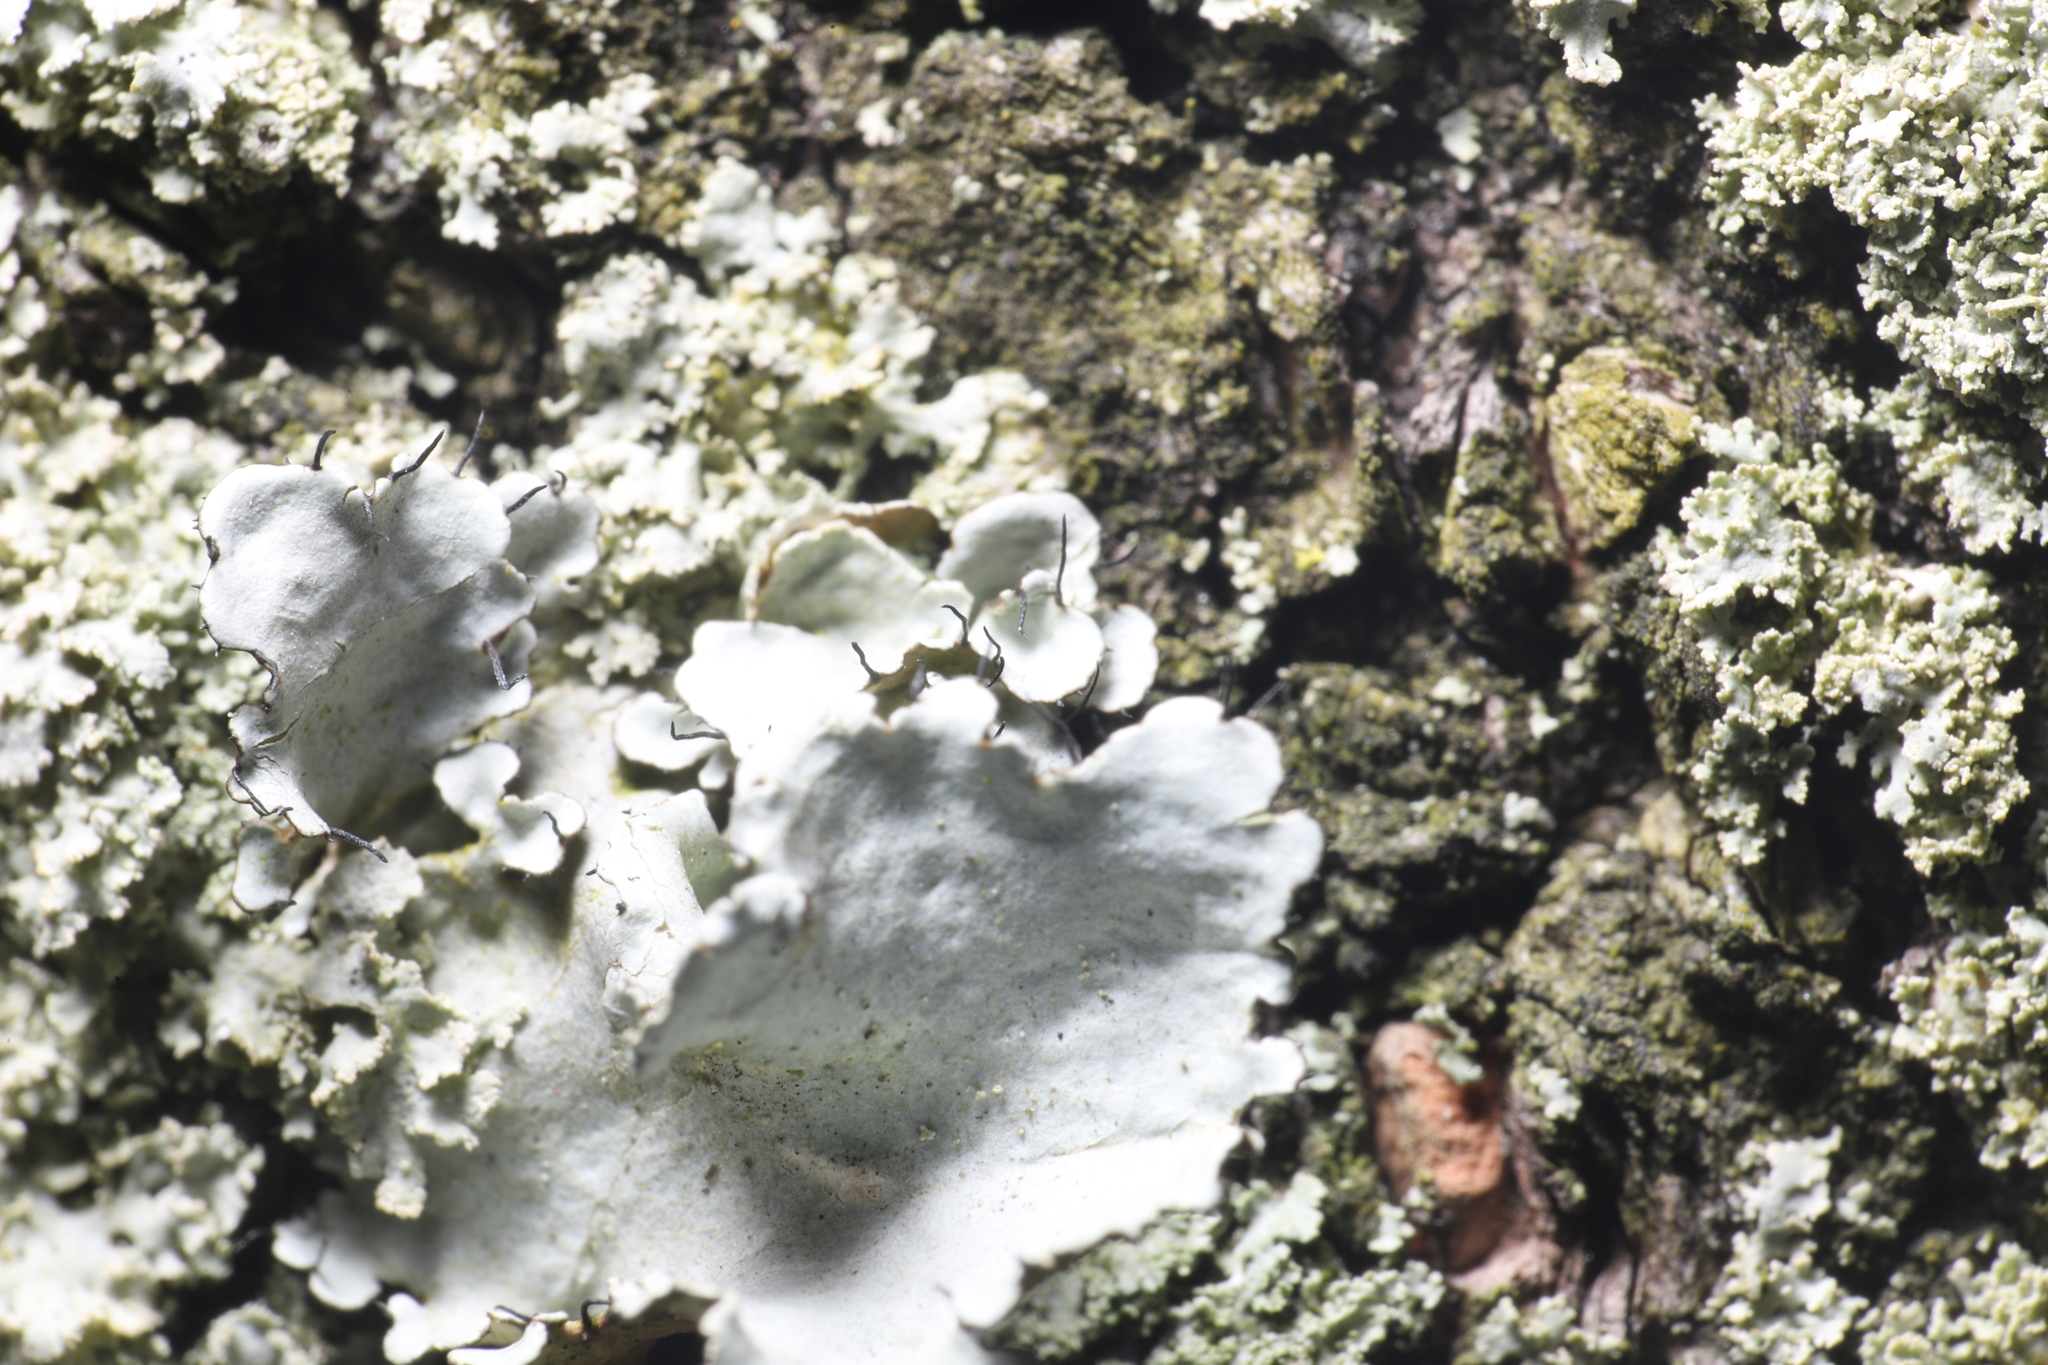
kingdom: Fungi
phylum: Ascomycota
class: Lecanoromycetes
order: Lecanorales
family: Parmeliaceae
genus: Parmotrema
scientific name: Parmotrema hypotropum
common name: Powdered ruffle lichen
